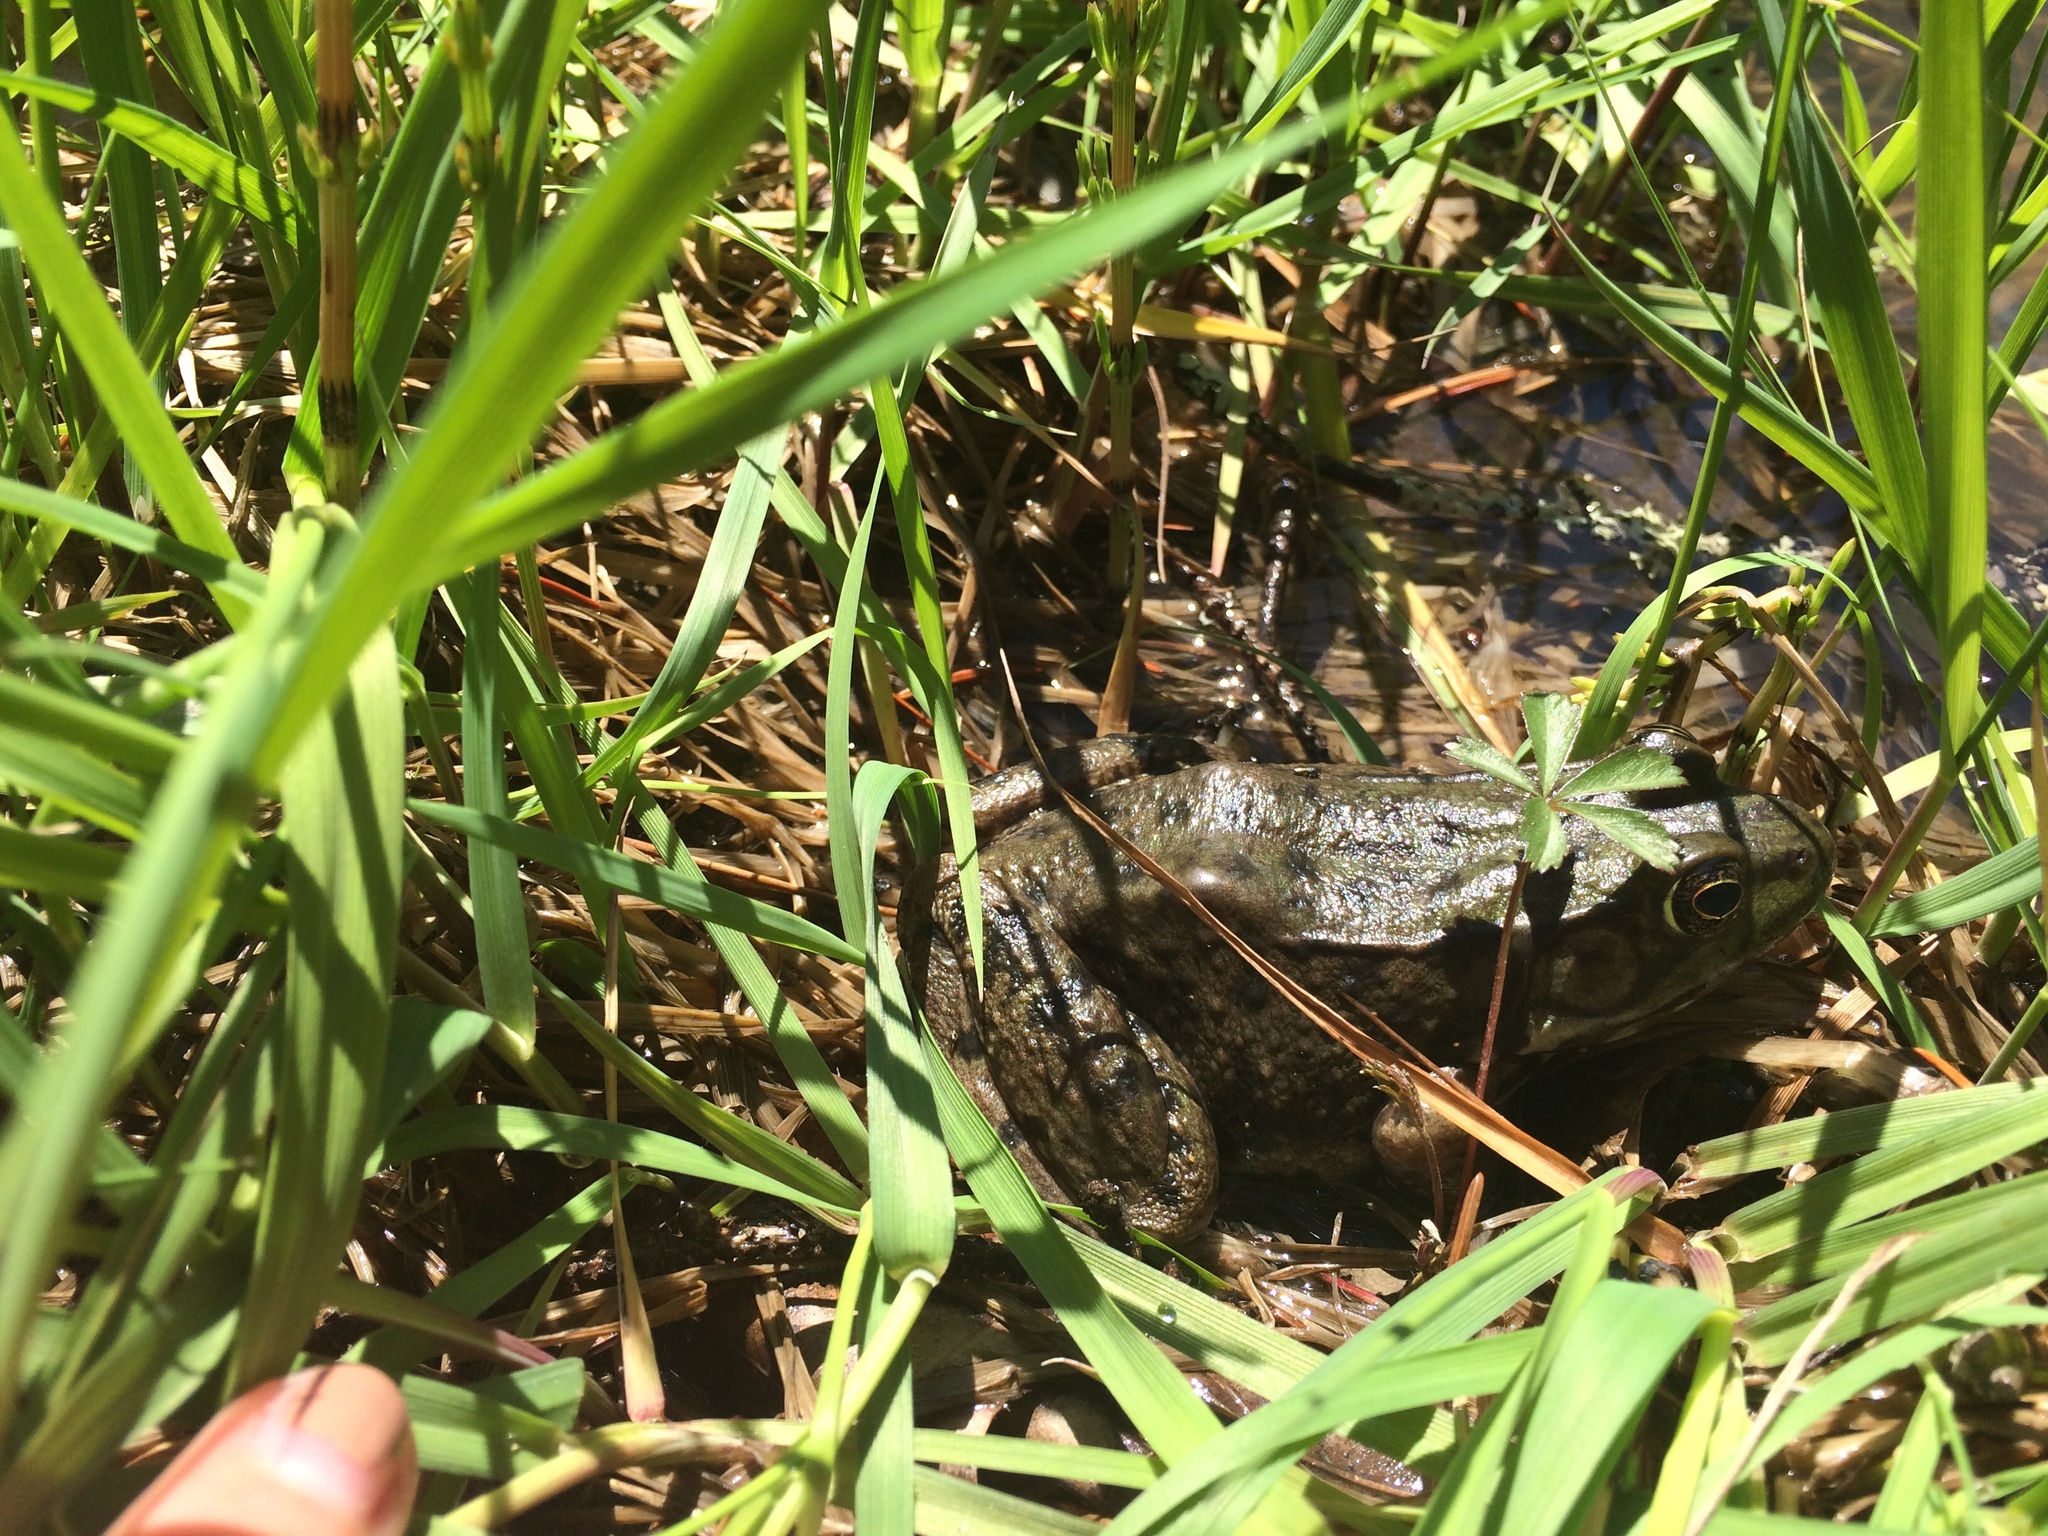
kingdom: Animalia
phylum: Chordata
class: Amphibia
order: Anura
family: Ranidae
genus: Lithobates
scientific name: Lithobates clamitans
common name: Green frog
